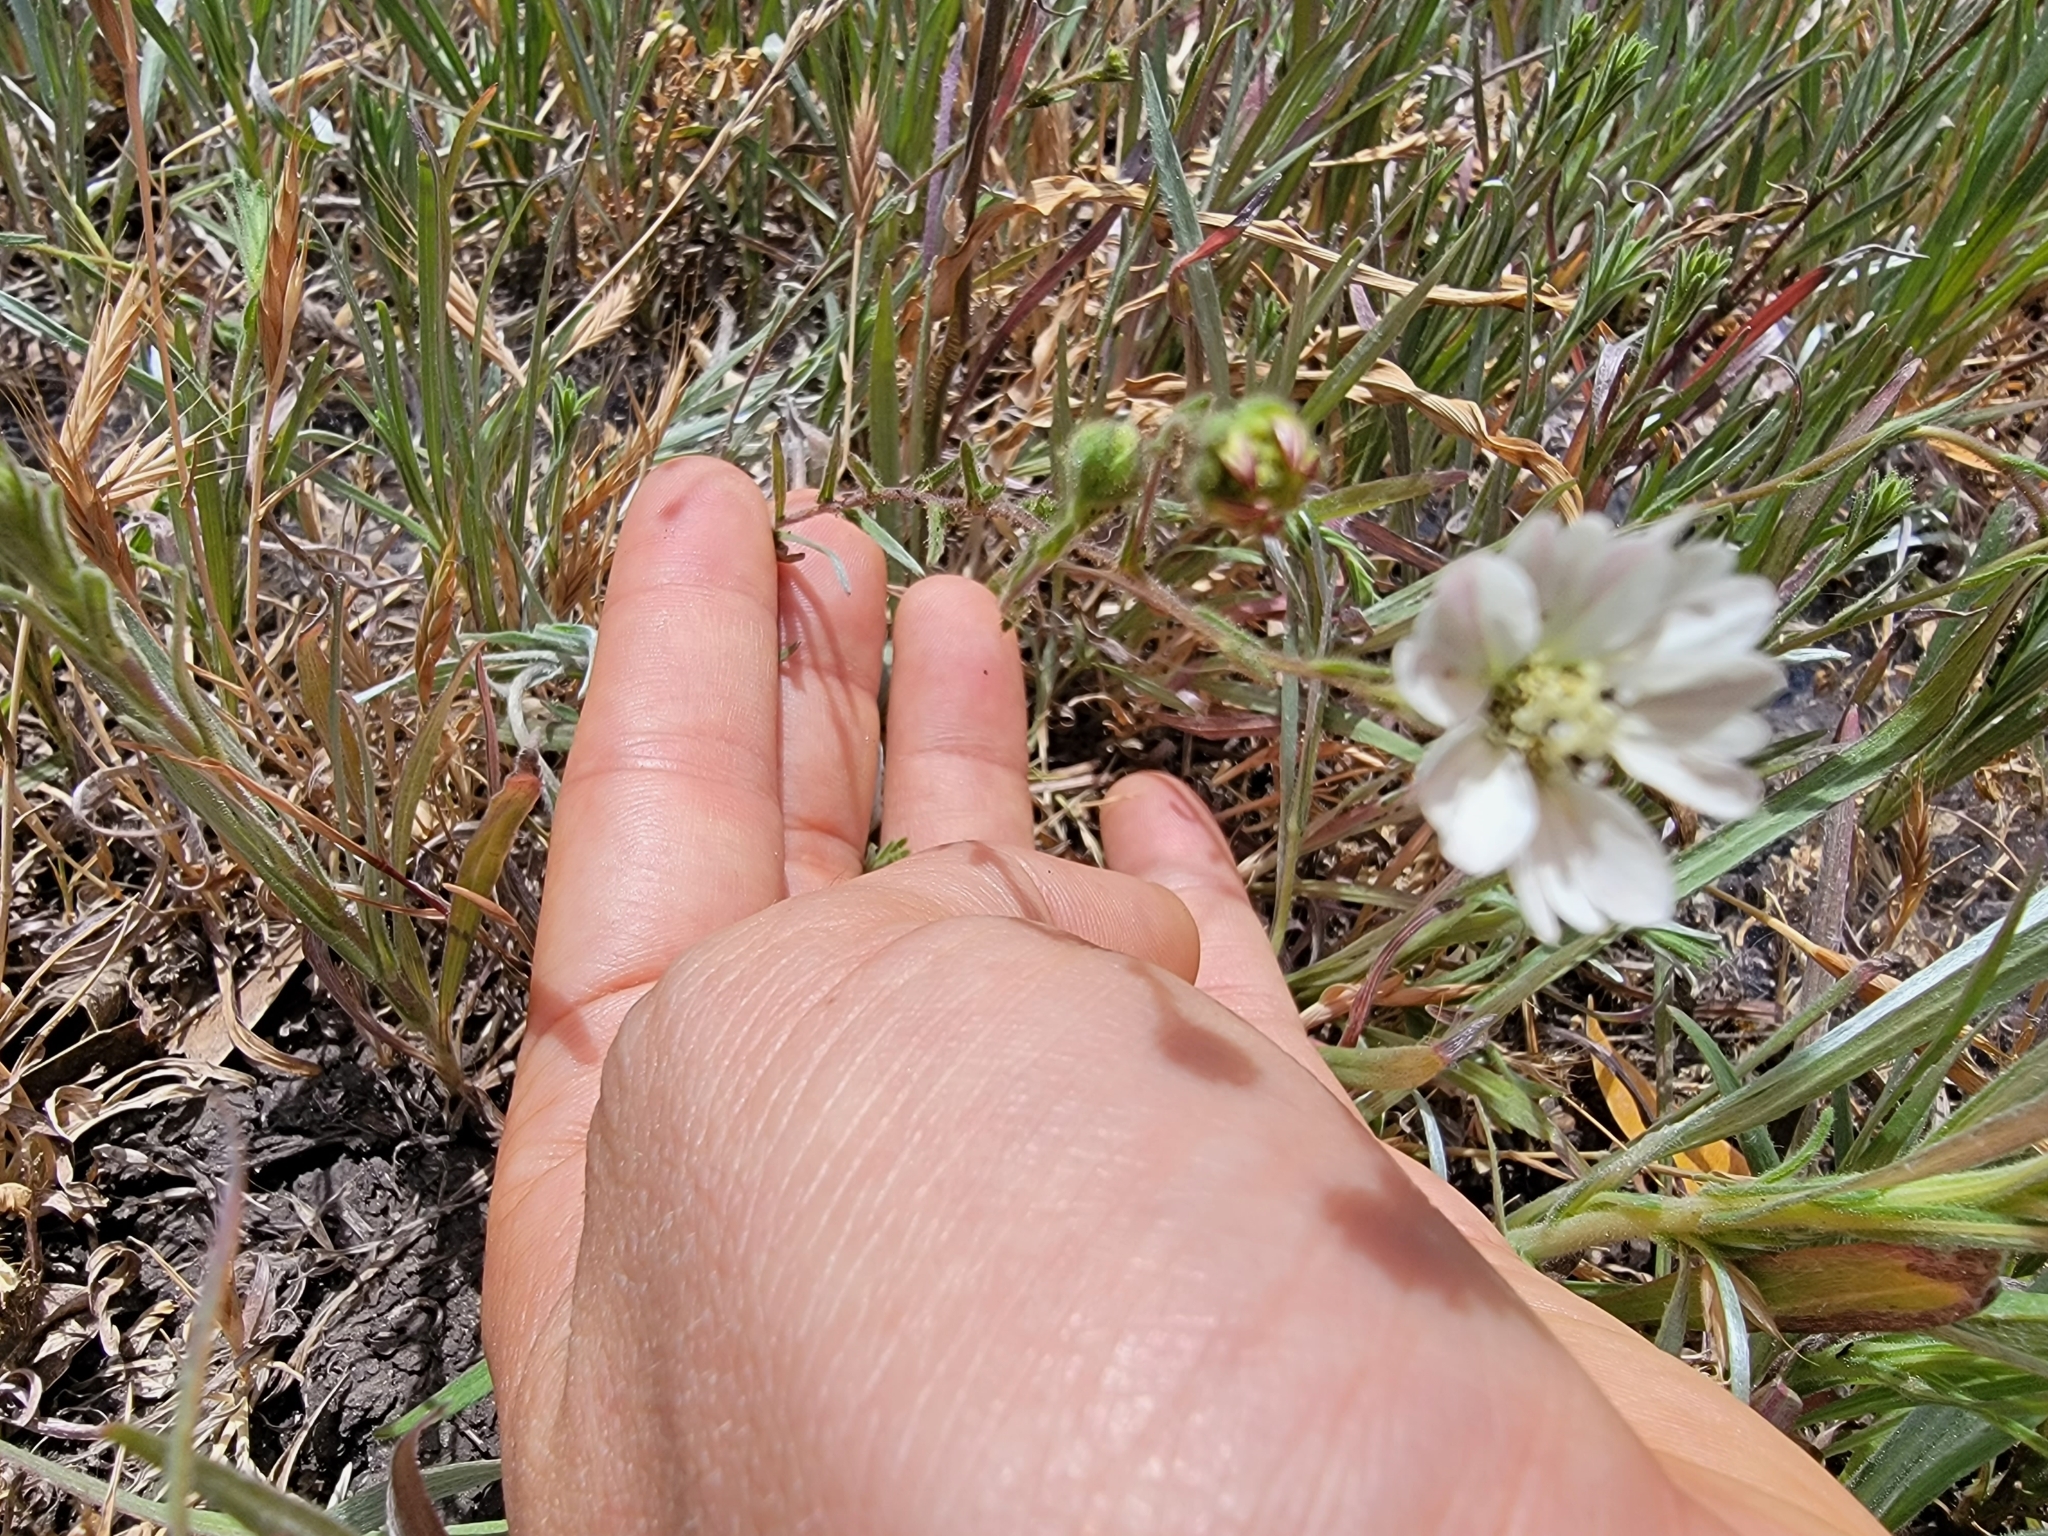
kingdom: Plantae
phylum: Tracheophyta
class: Magnoliopsida
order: Asterales
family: Asteraceae
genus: Hemizonia
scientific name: Hemizonia congesta
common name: Hayfield tarweed
